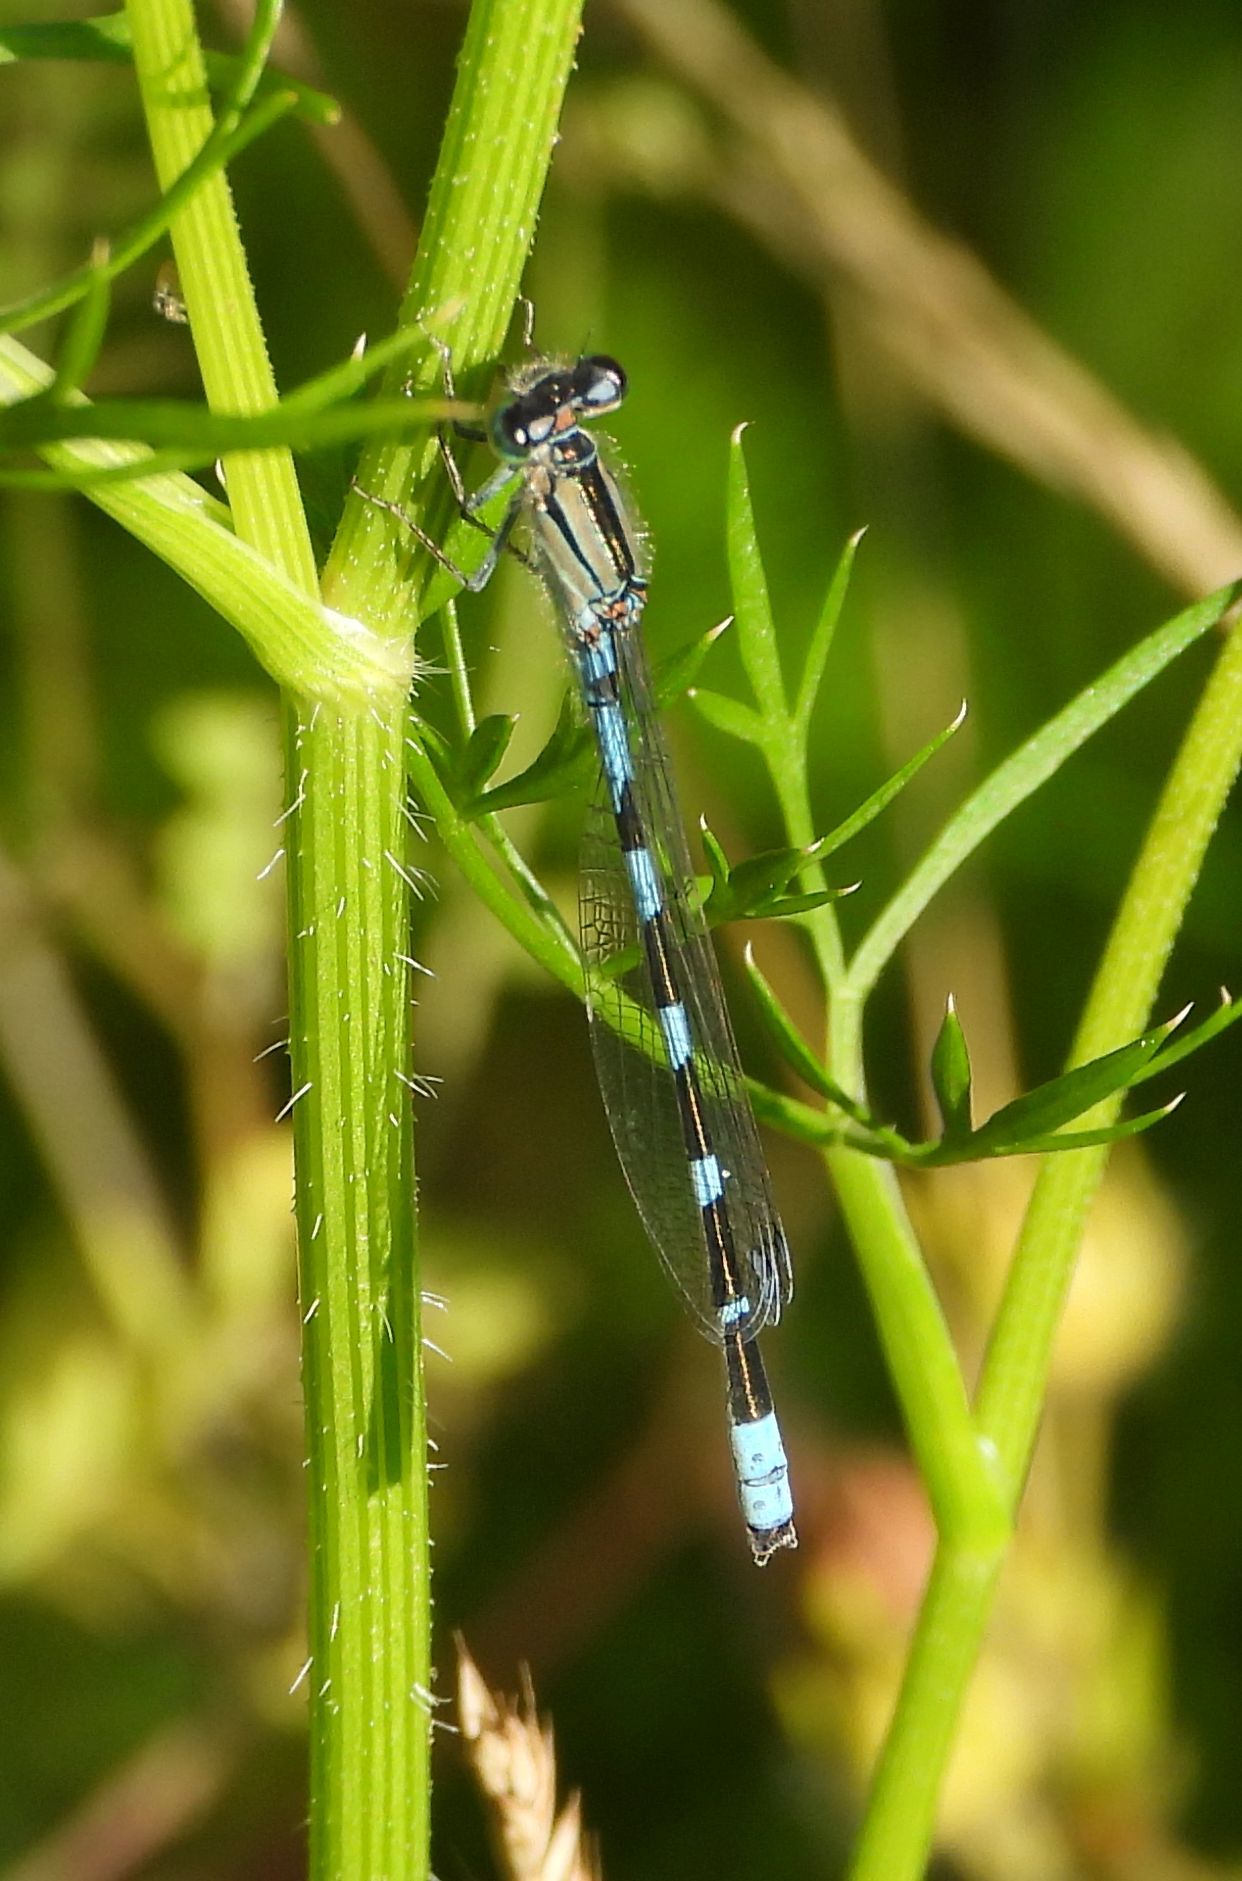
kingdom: Animalia
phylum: Arthropoda
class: Insecta
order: Odonata
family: Coenagrionidae
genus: Enallagma
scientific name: Enallagma carunculatum
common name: Tule bluet
